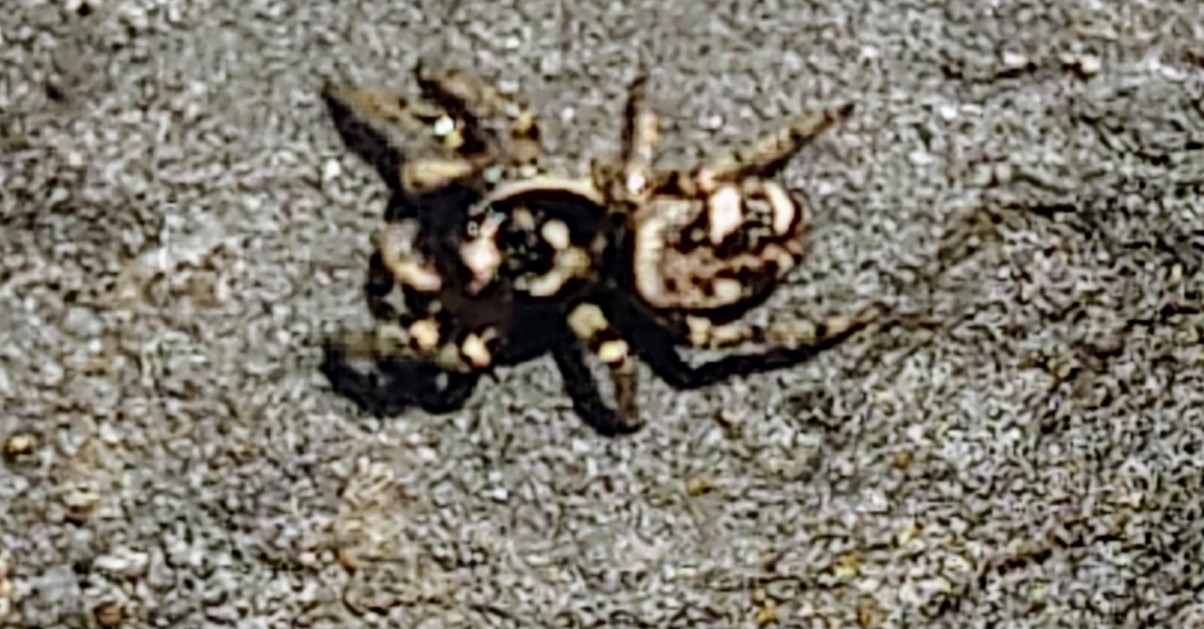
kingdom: Animalia
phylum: Arthropoda
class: Arachnida
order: Araneae
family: Salticidae
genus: Salticus
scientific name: Salticus scenicus
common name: Zebra jumper
